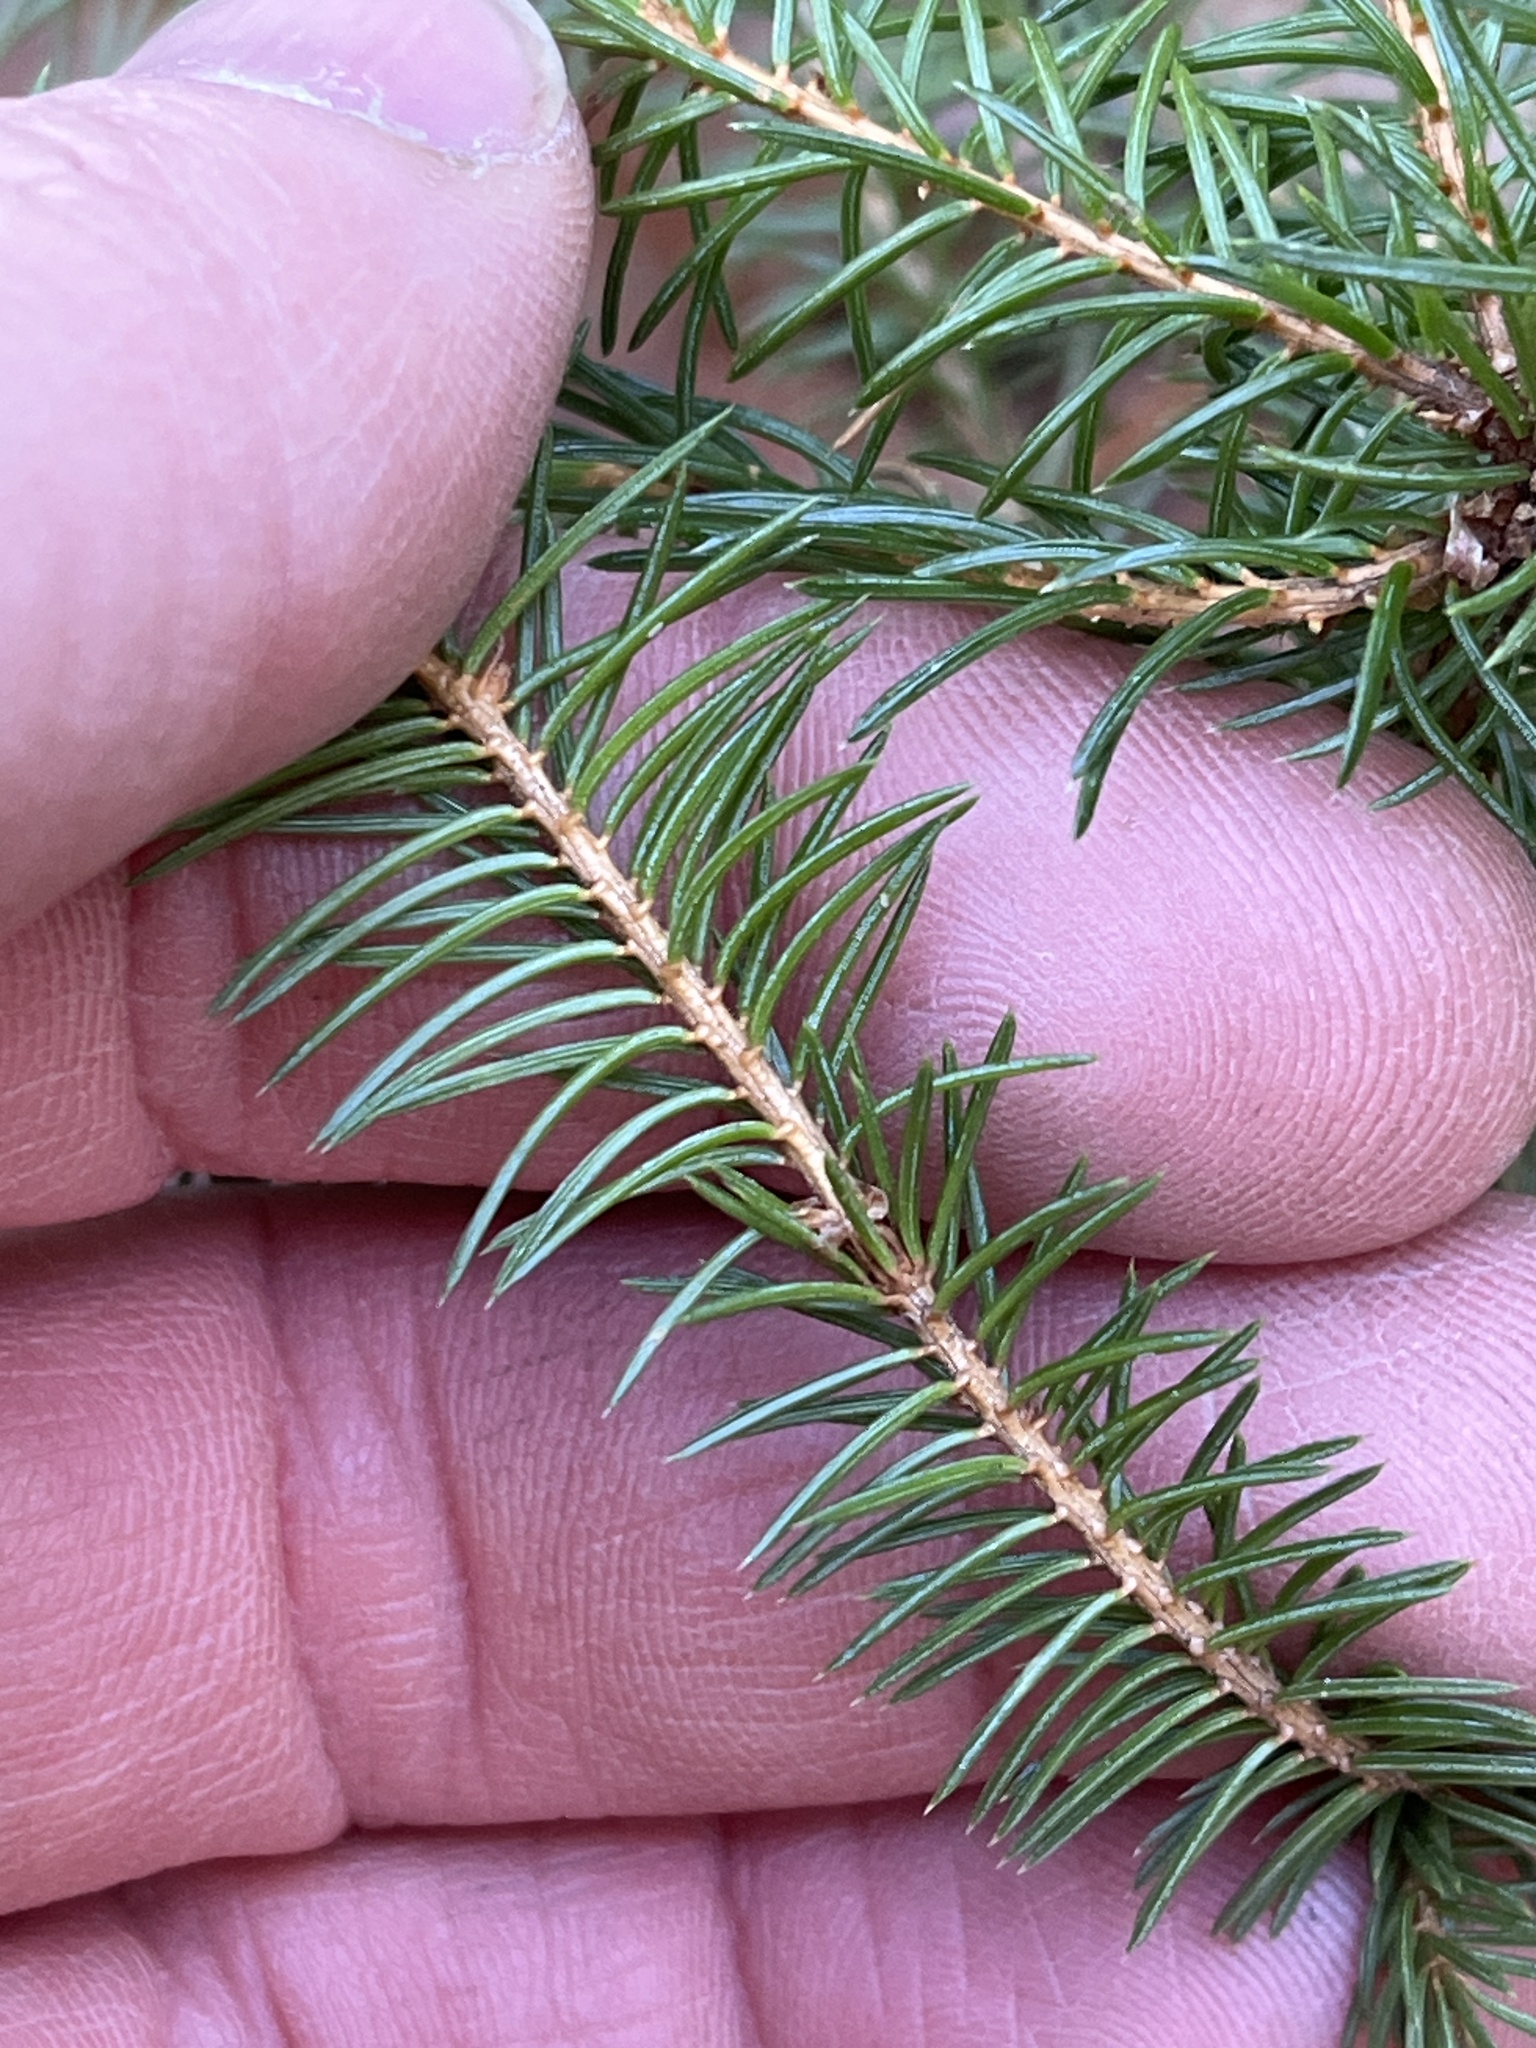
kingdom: Plantae
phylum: Tracheophyta
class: Pinopsida
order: Pinales
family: Pinaceae
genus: Picea
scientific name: Picea rubens
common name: Red spruce
